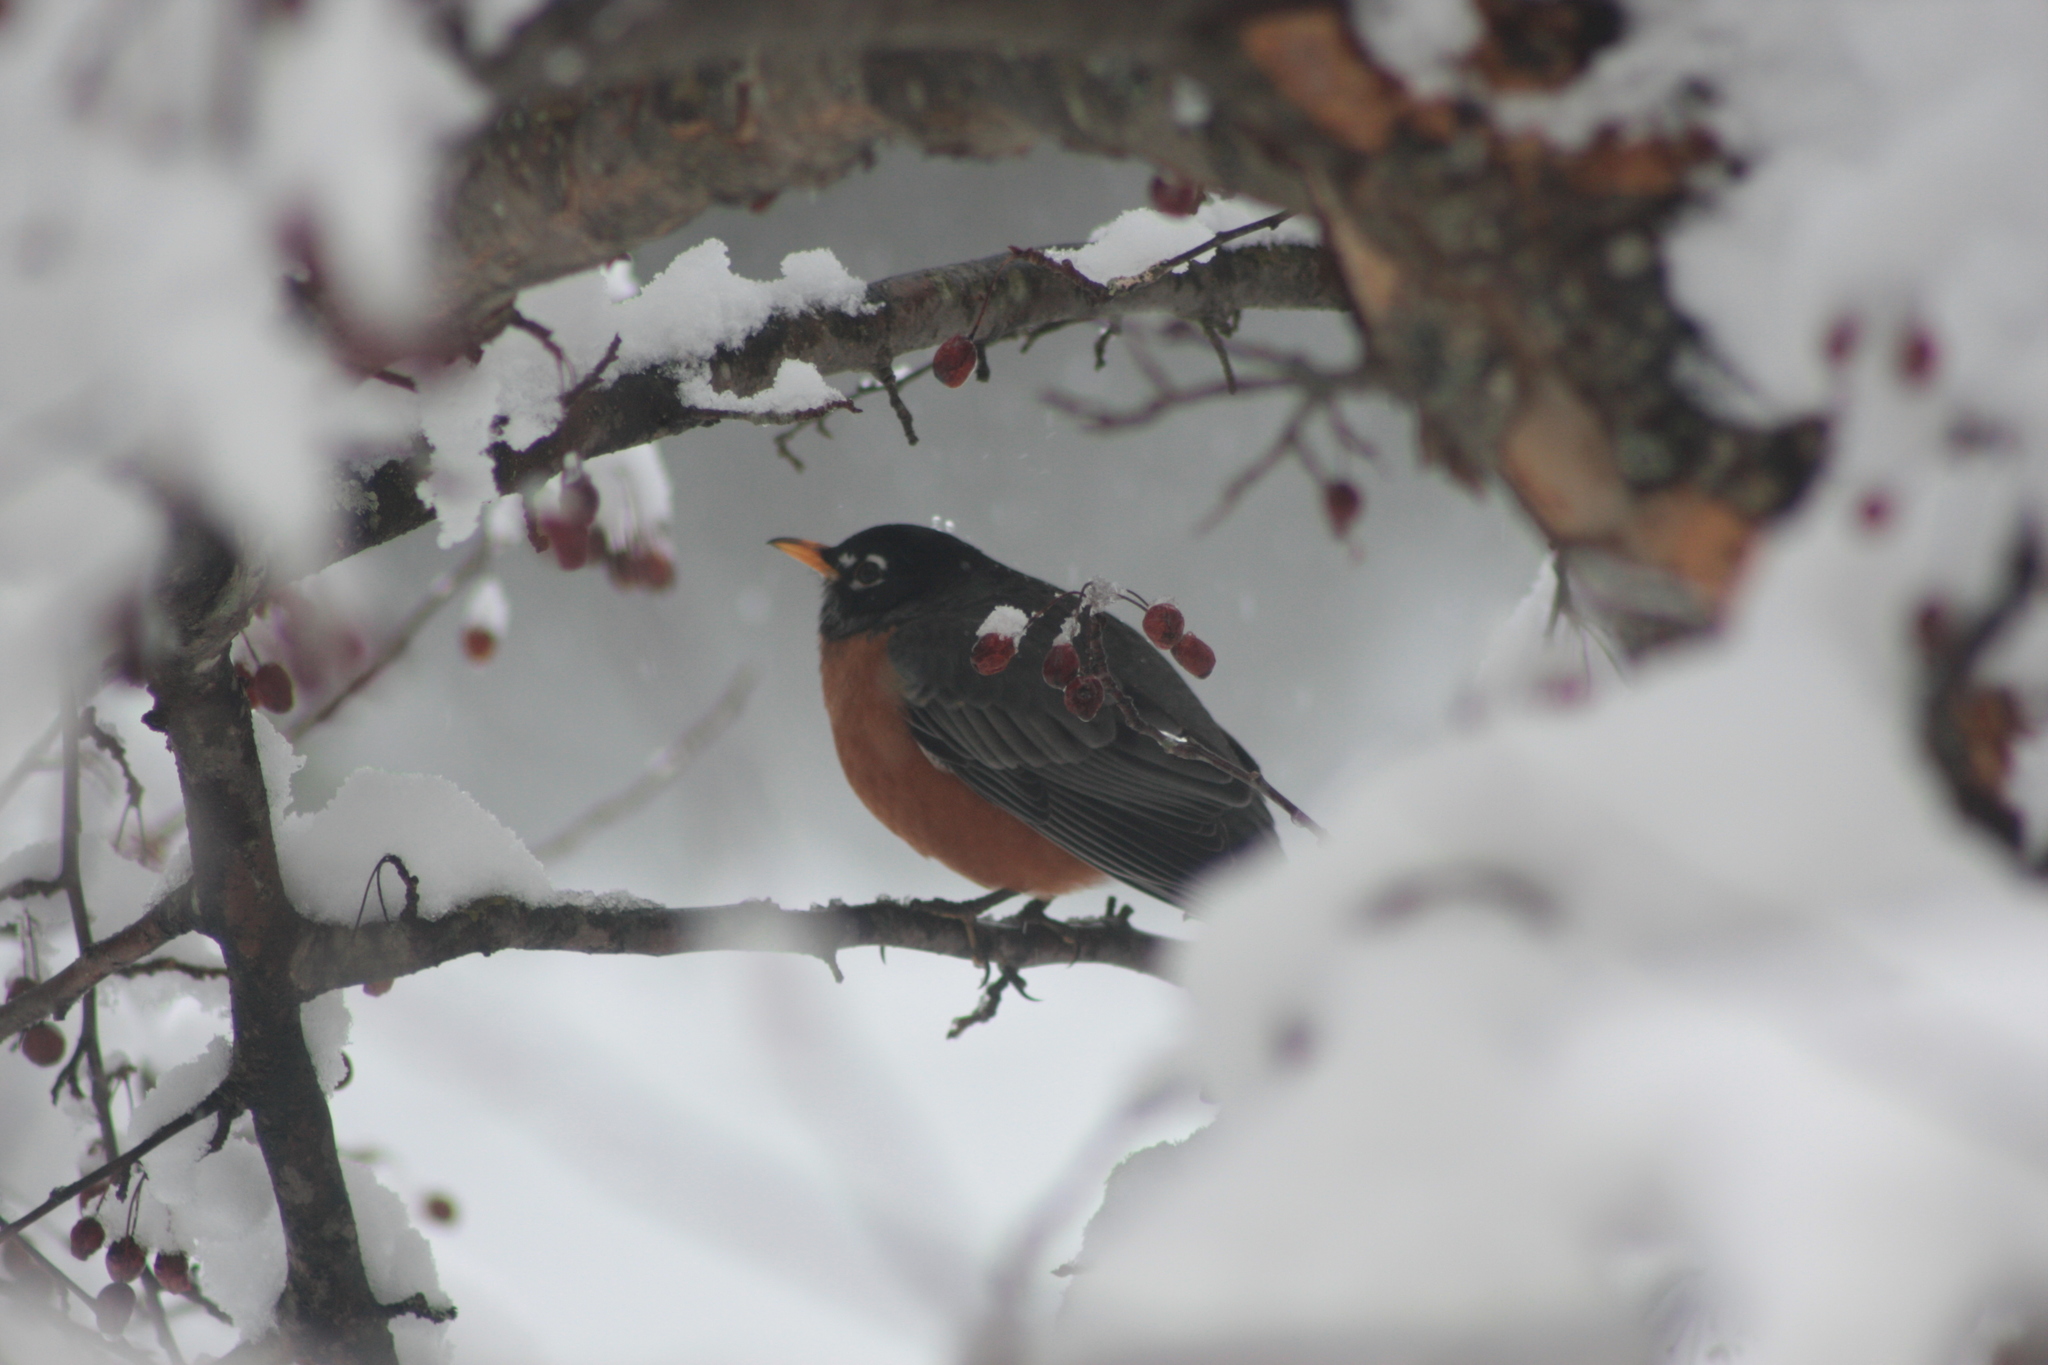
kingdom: Animalia
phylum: Chordata
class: Aves
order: Passeriformes
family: Turdidae
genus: Turdus
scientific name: Turdus migratorius
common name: American robin
